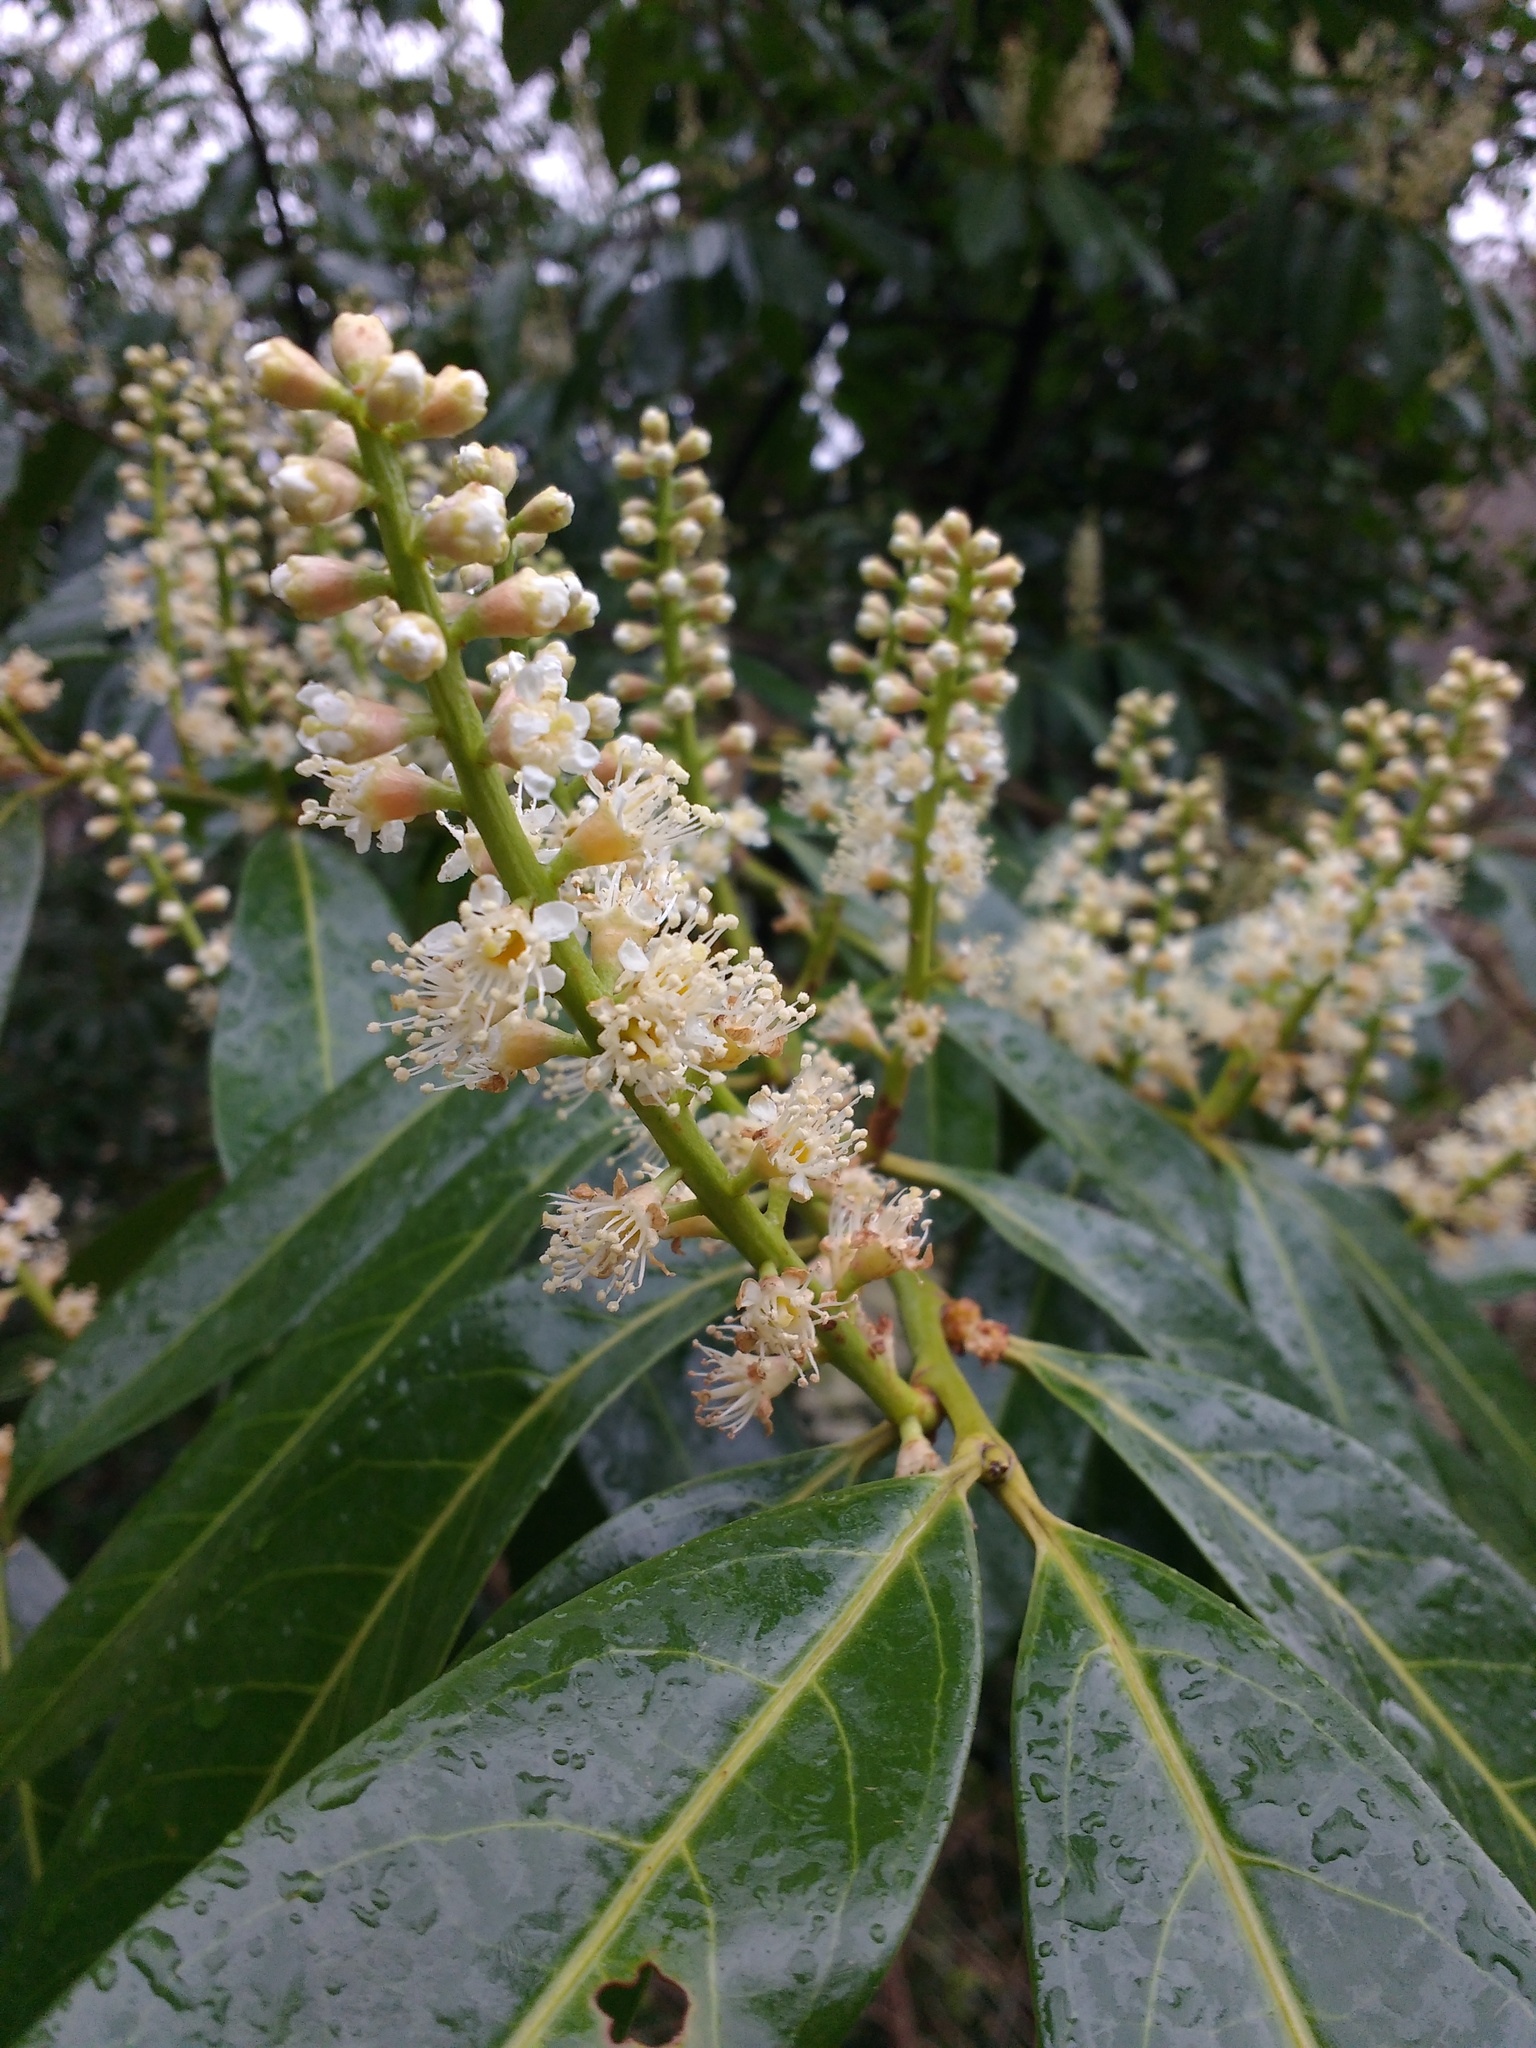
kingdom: Plantae
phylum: Tracheophyta
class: Magnoliopsida
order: Rosales
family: Rosaceae
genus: Prunus
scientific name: Prunus laurocerasus
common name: Cherry laurel
